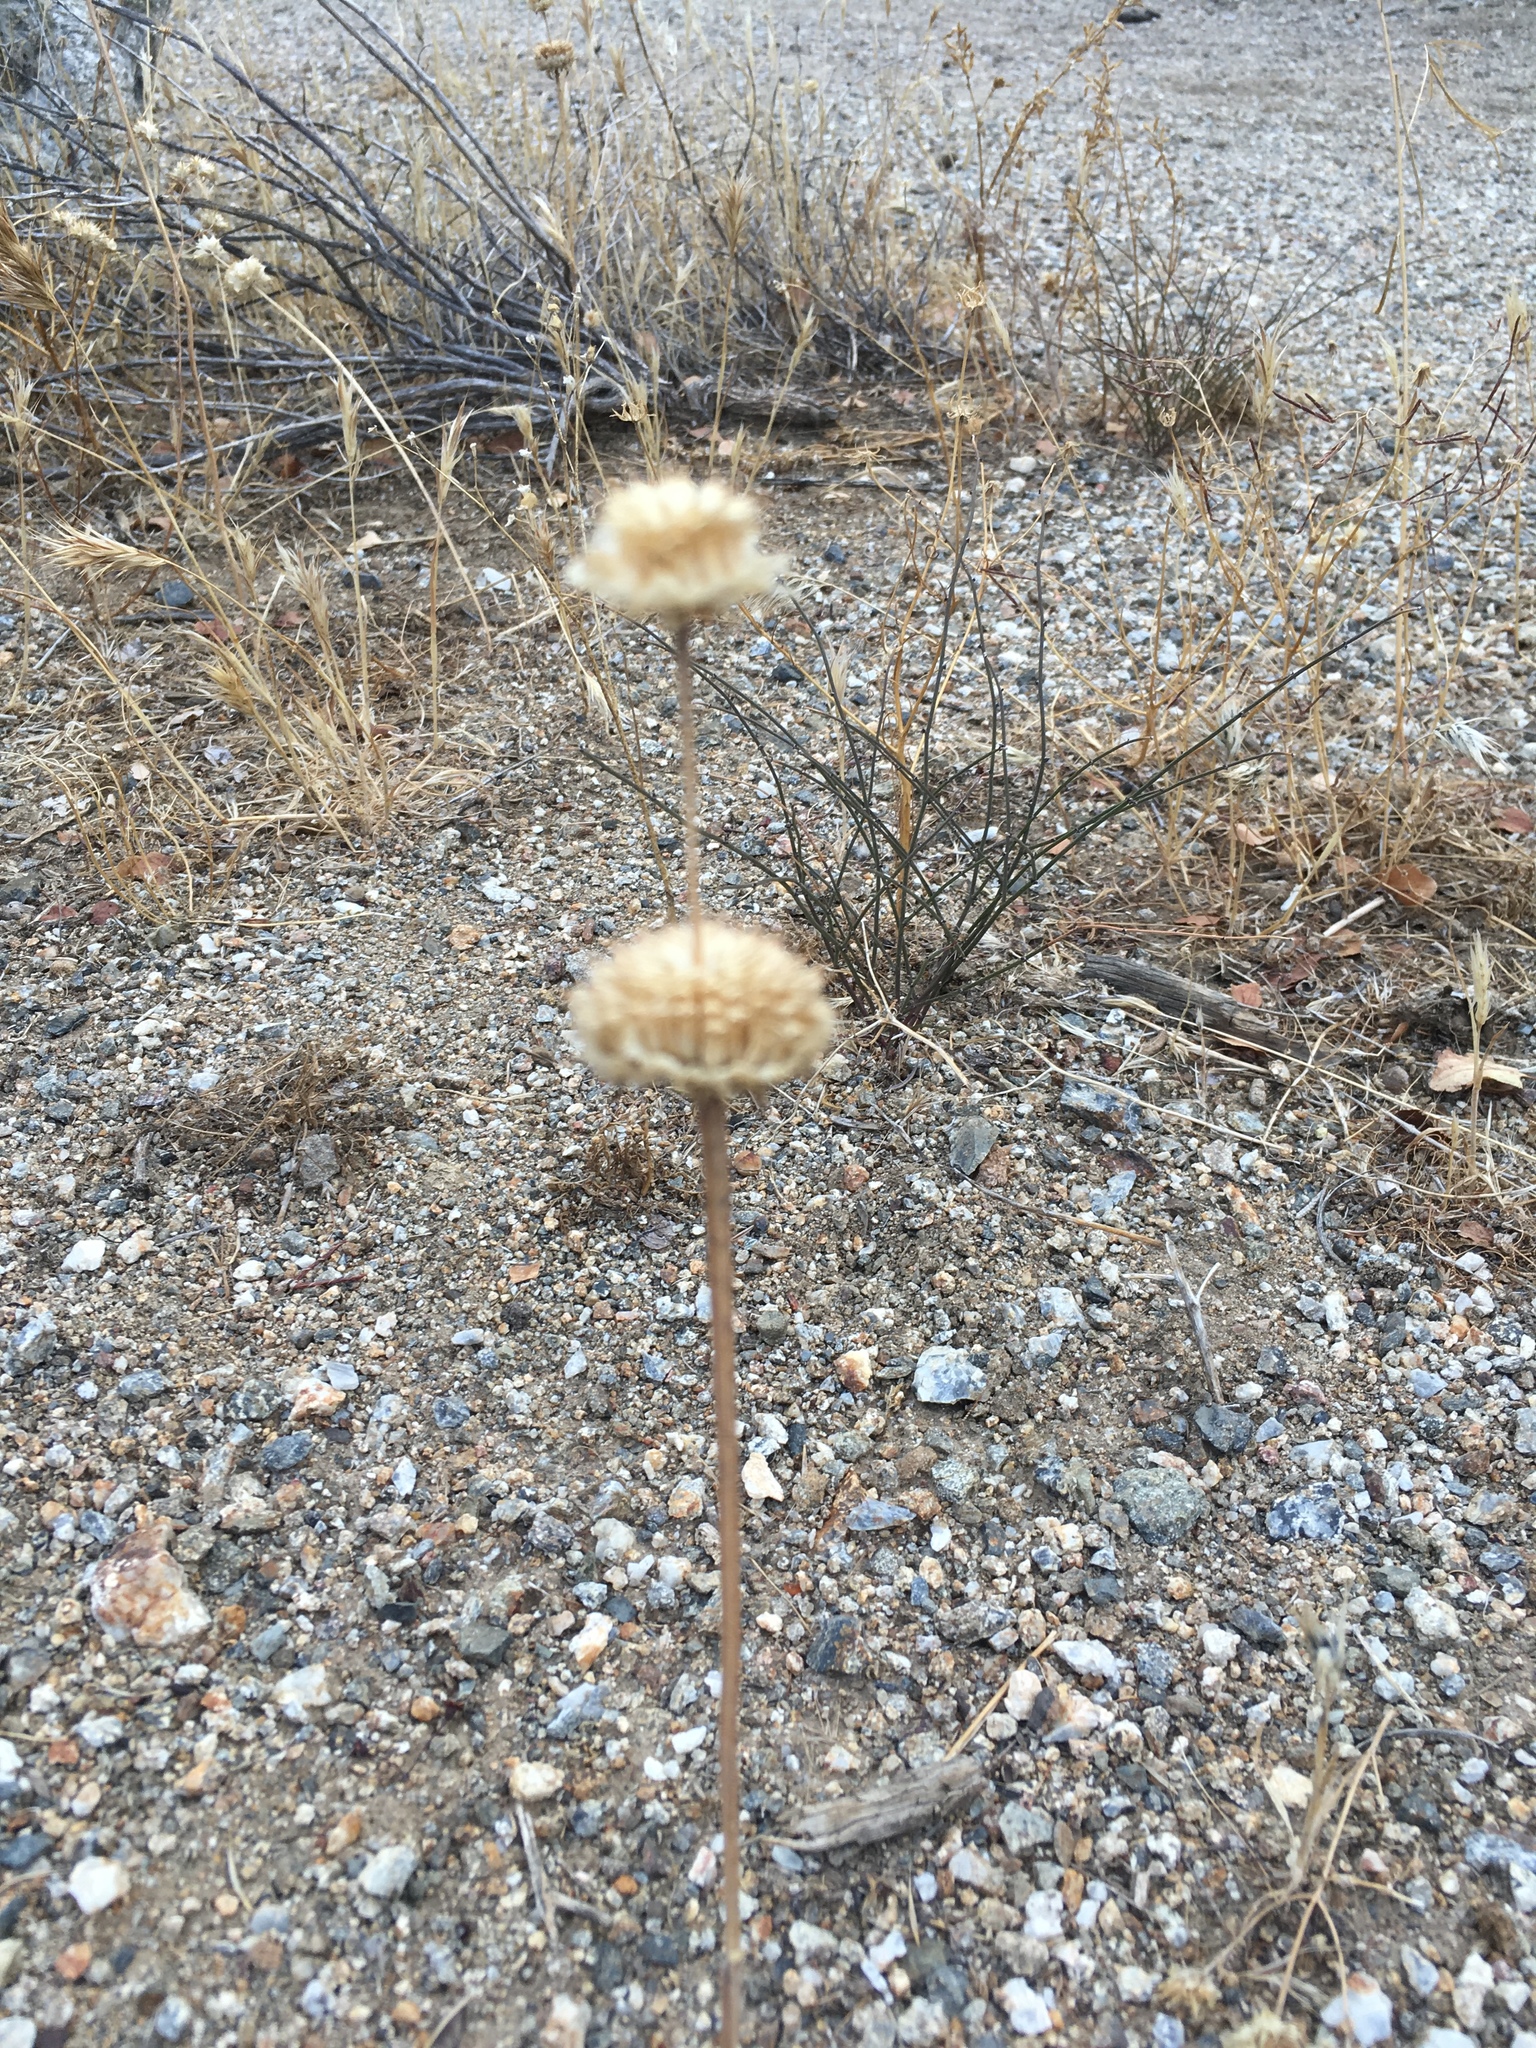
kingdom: Plantae
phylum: Tracheophyta
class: Magnoliopsida
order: Lamiales
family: Lamiaceae
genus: Salvia
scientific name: Salvia columbariae
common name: Chia
